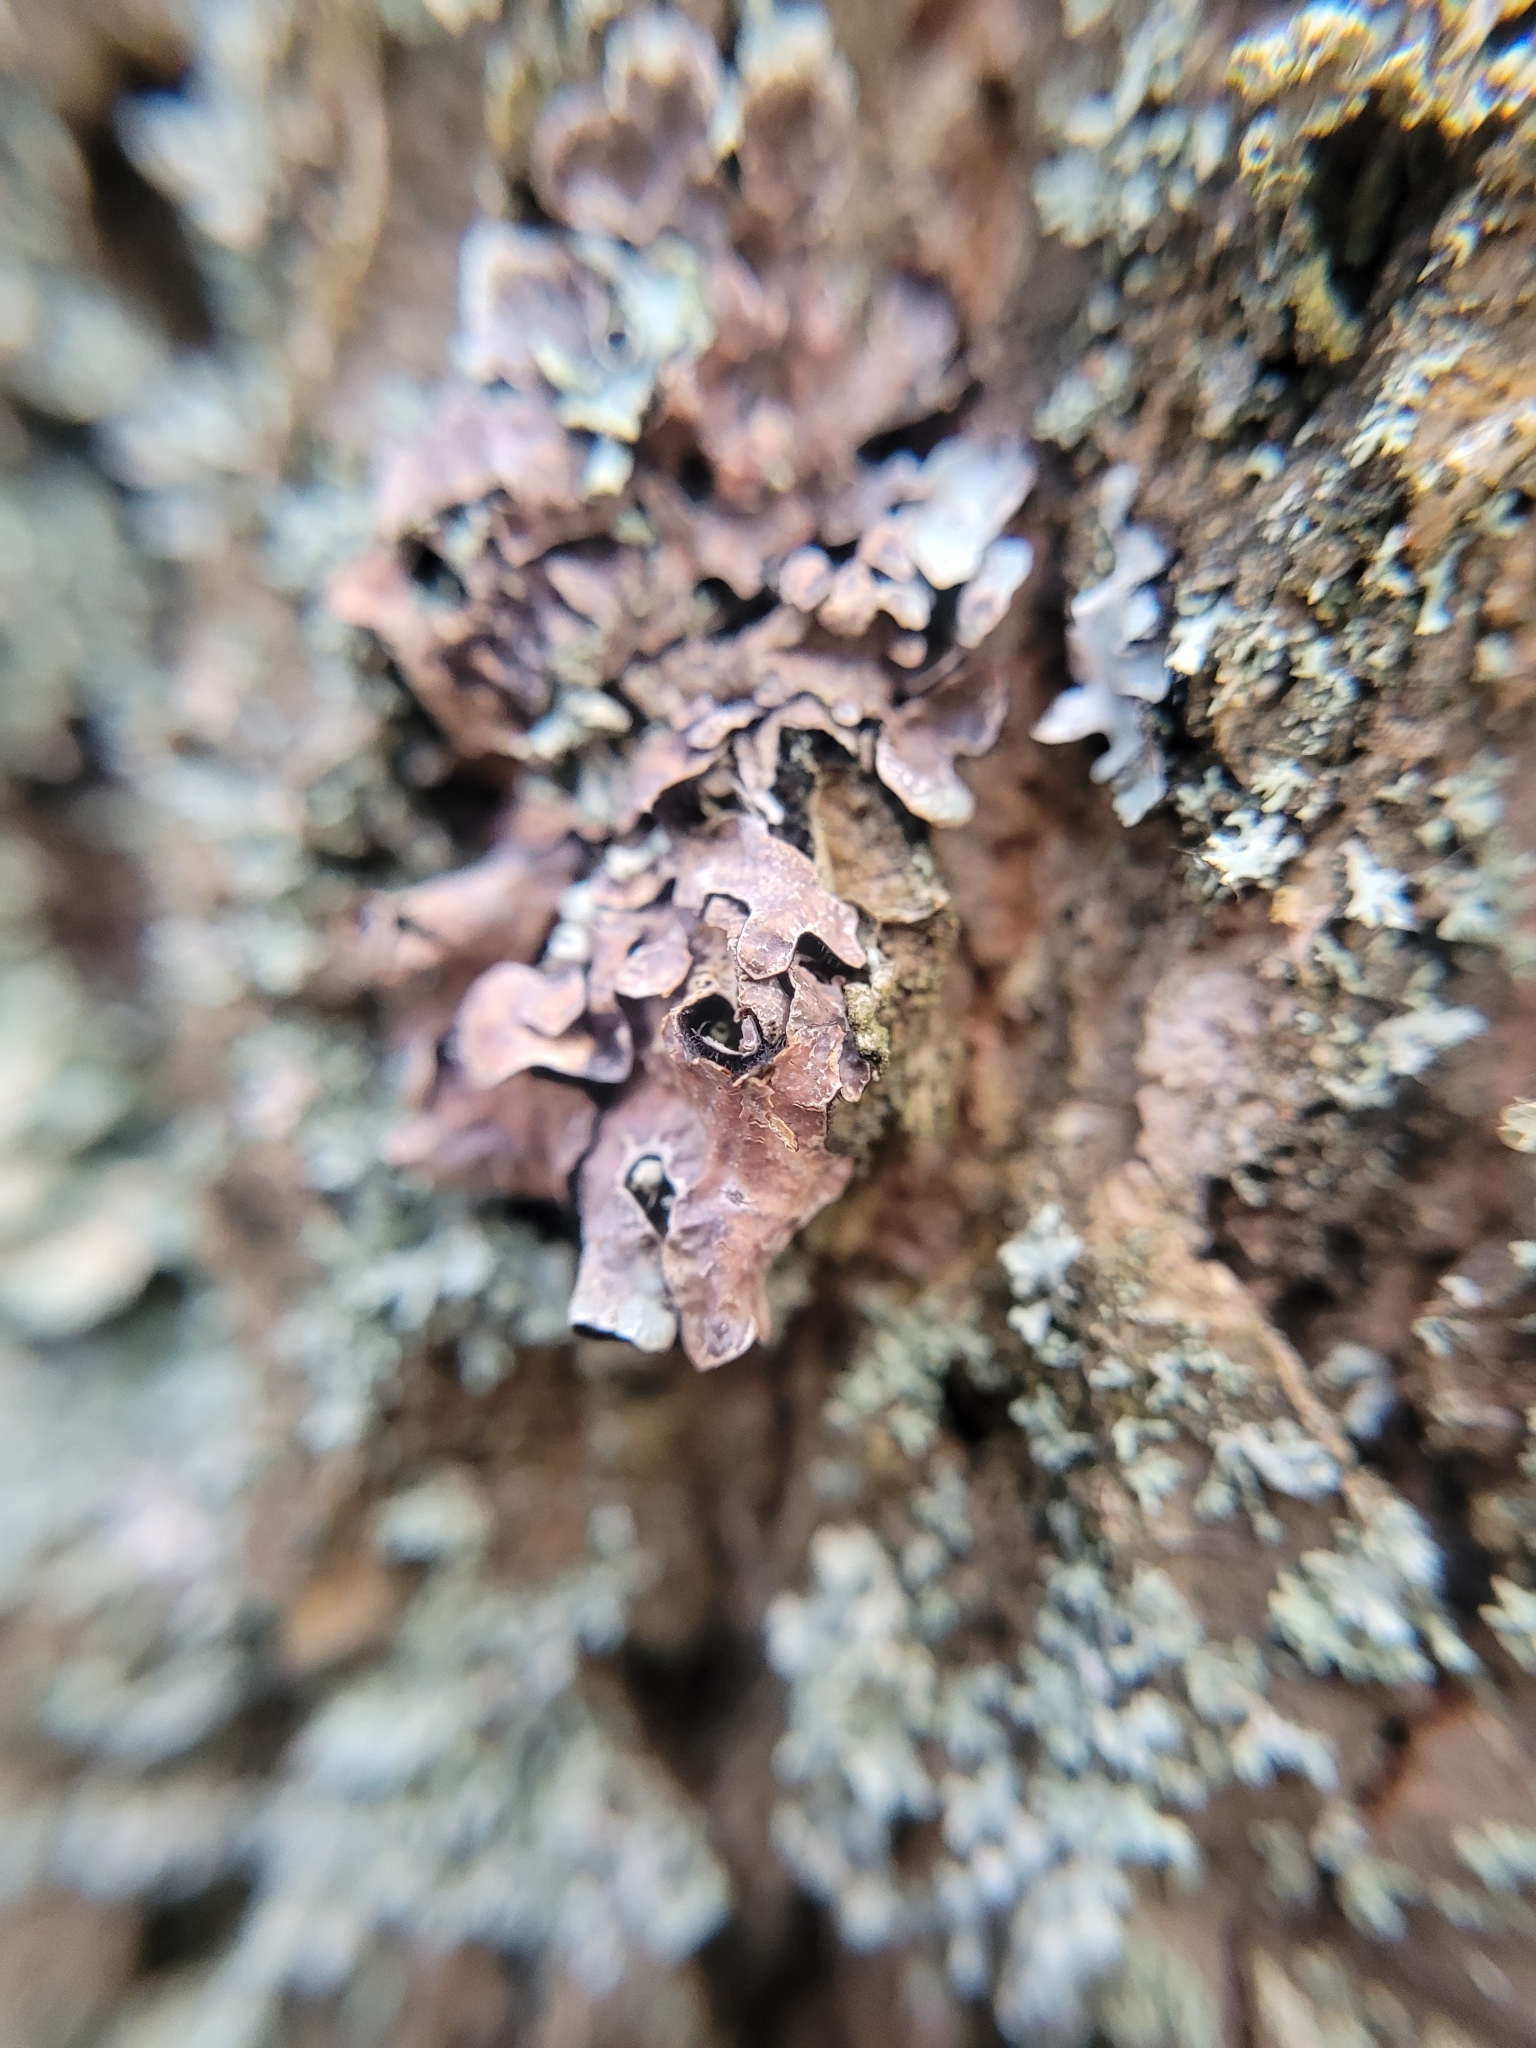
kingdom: Fungi
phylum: Ascomycota
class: Lecanoromycetes
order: Lecanorales
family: Parmeliaceae
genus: Parmelia
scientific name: Parmelia sulcata
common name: Netted shield lichen
